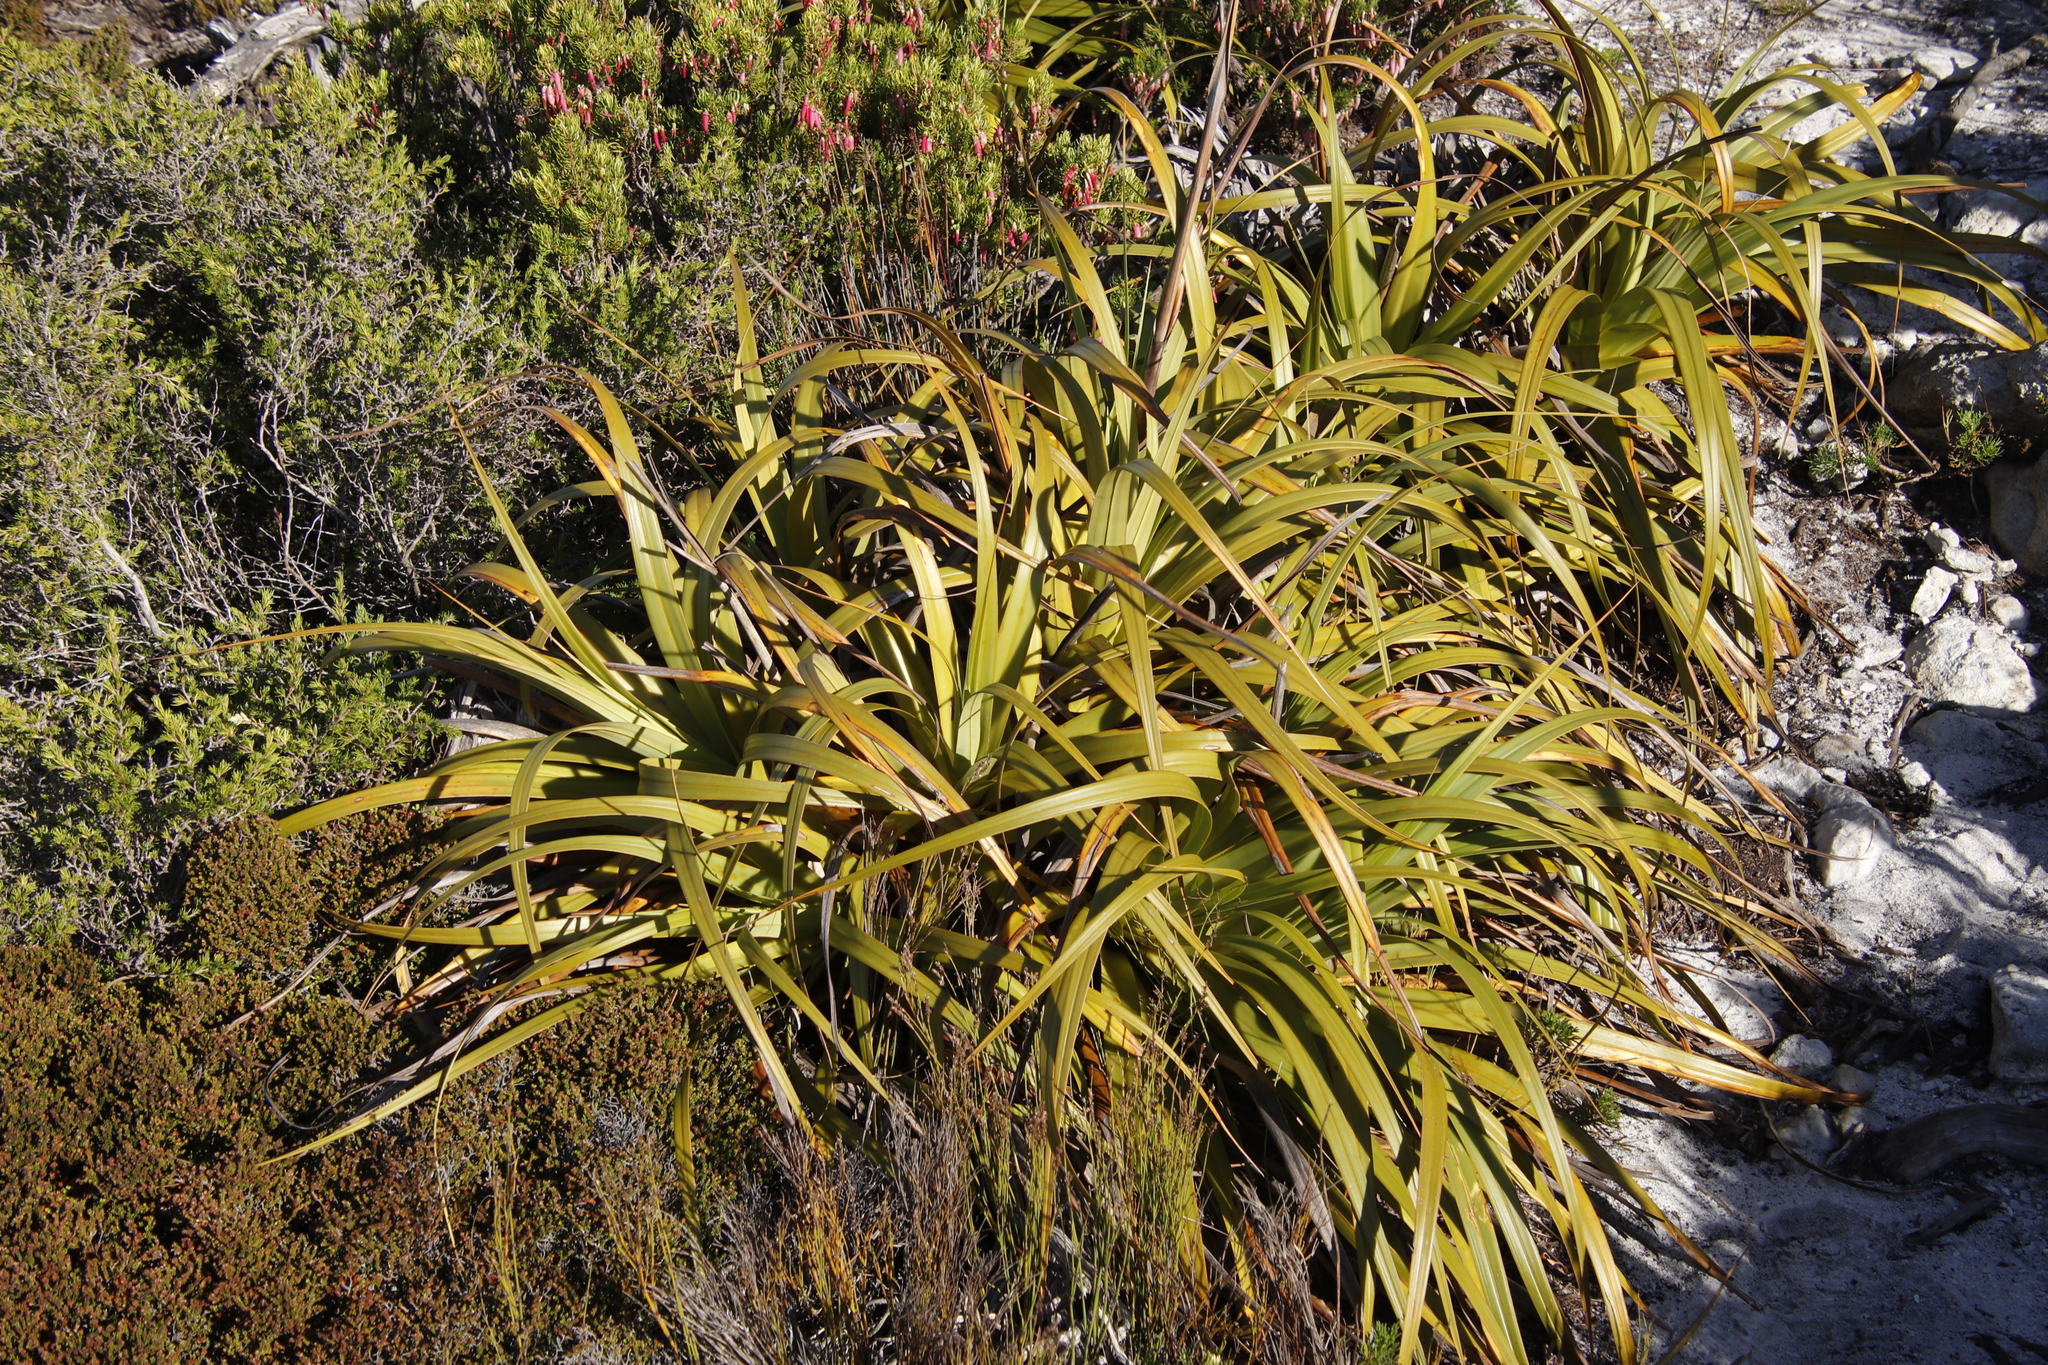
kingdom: Plantae
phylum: Tracheophyta
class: Liliopsida
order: Poales
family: Cyperaceae
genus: Tetraria
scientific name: Tetraria thermalis
